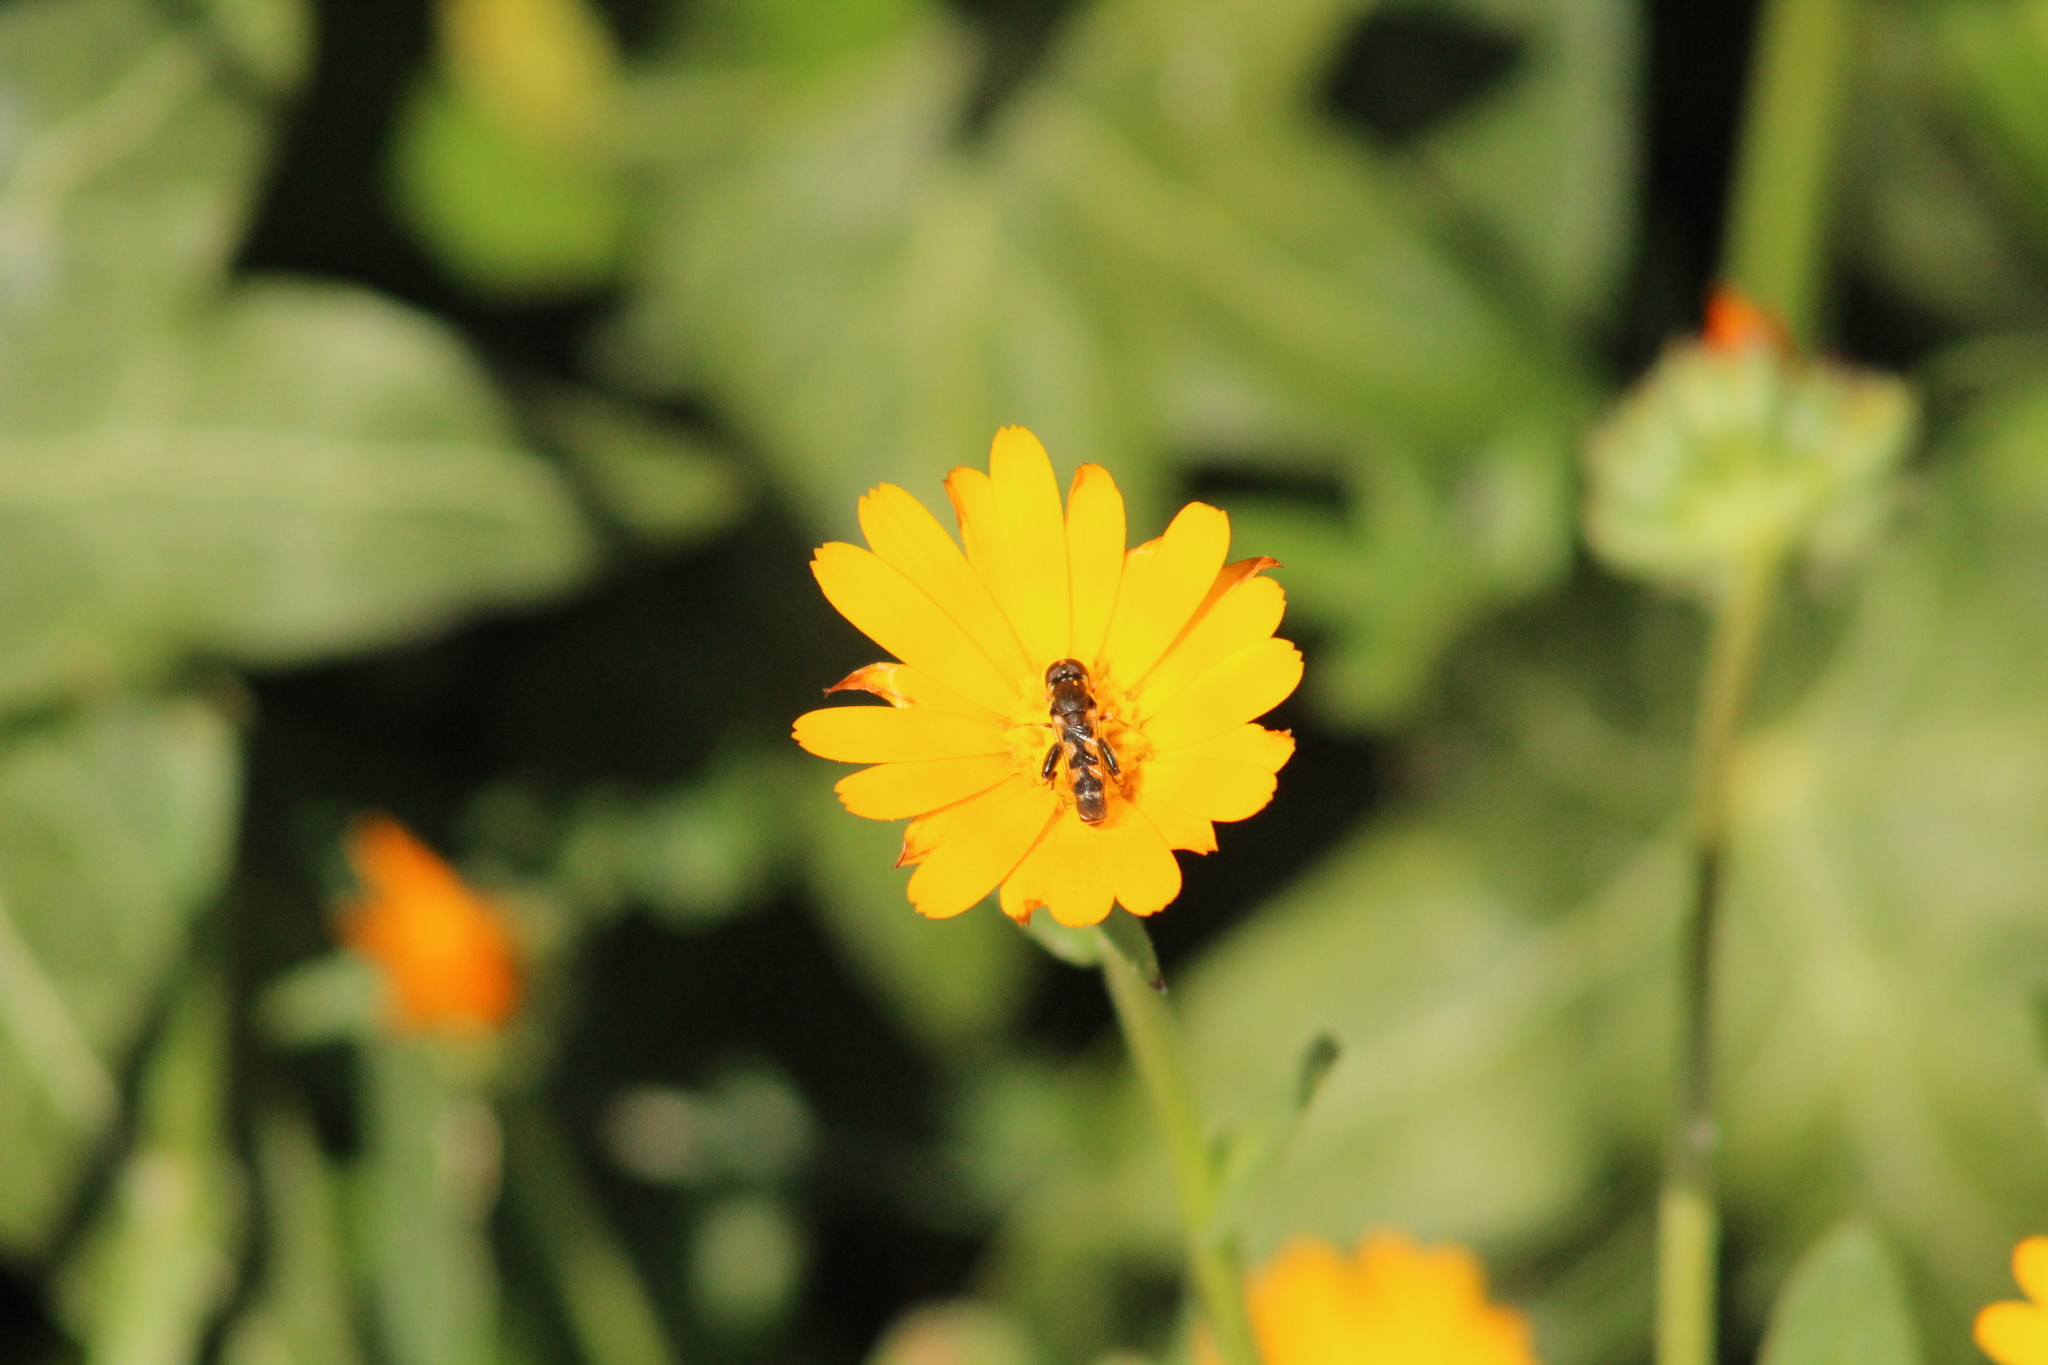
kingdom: Animalia
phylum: Arthropoda
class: Insecta
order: Diptera
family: Syrphidae
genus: Syritta
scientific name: Syritta pipiens
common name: Hover fly
